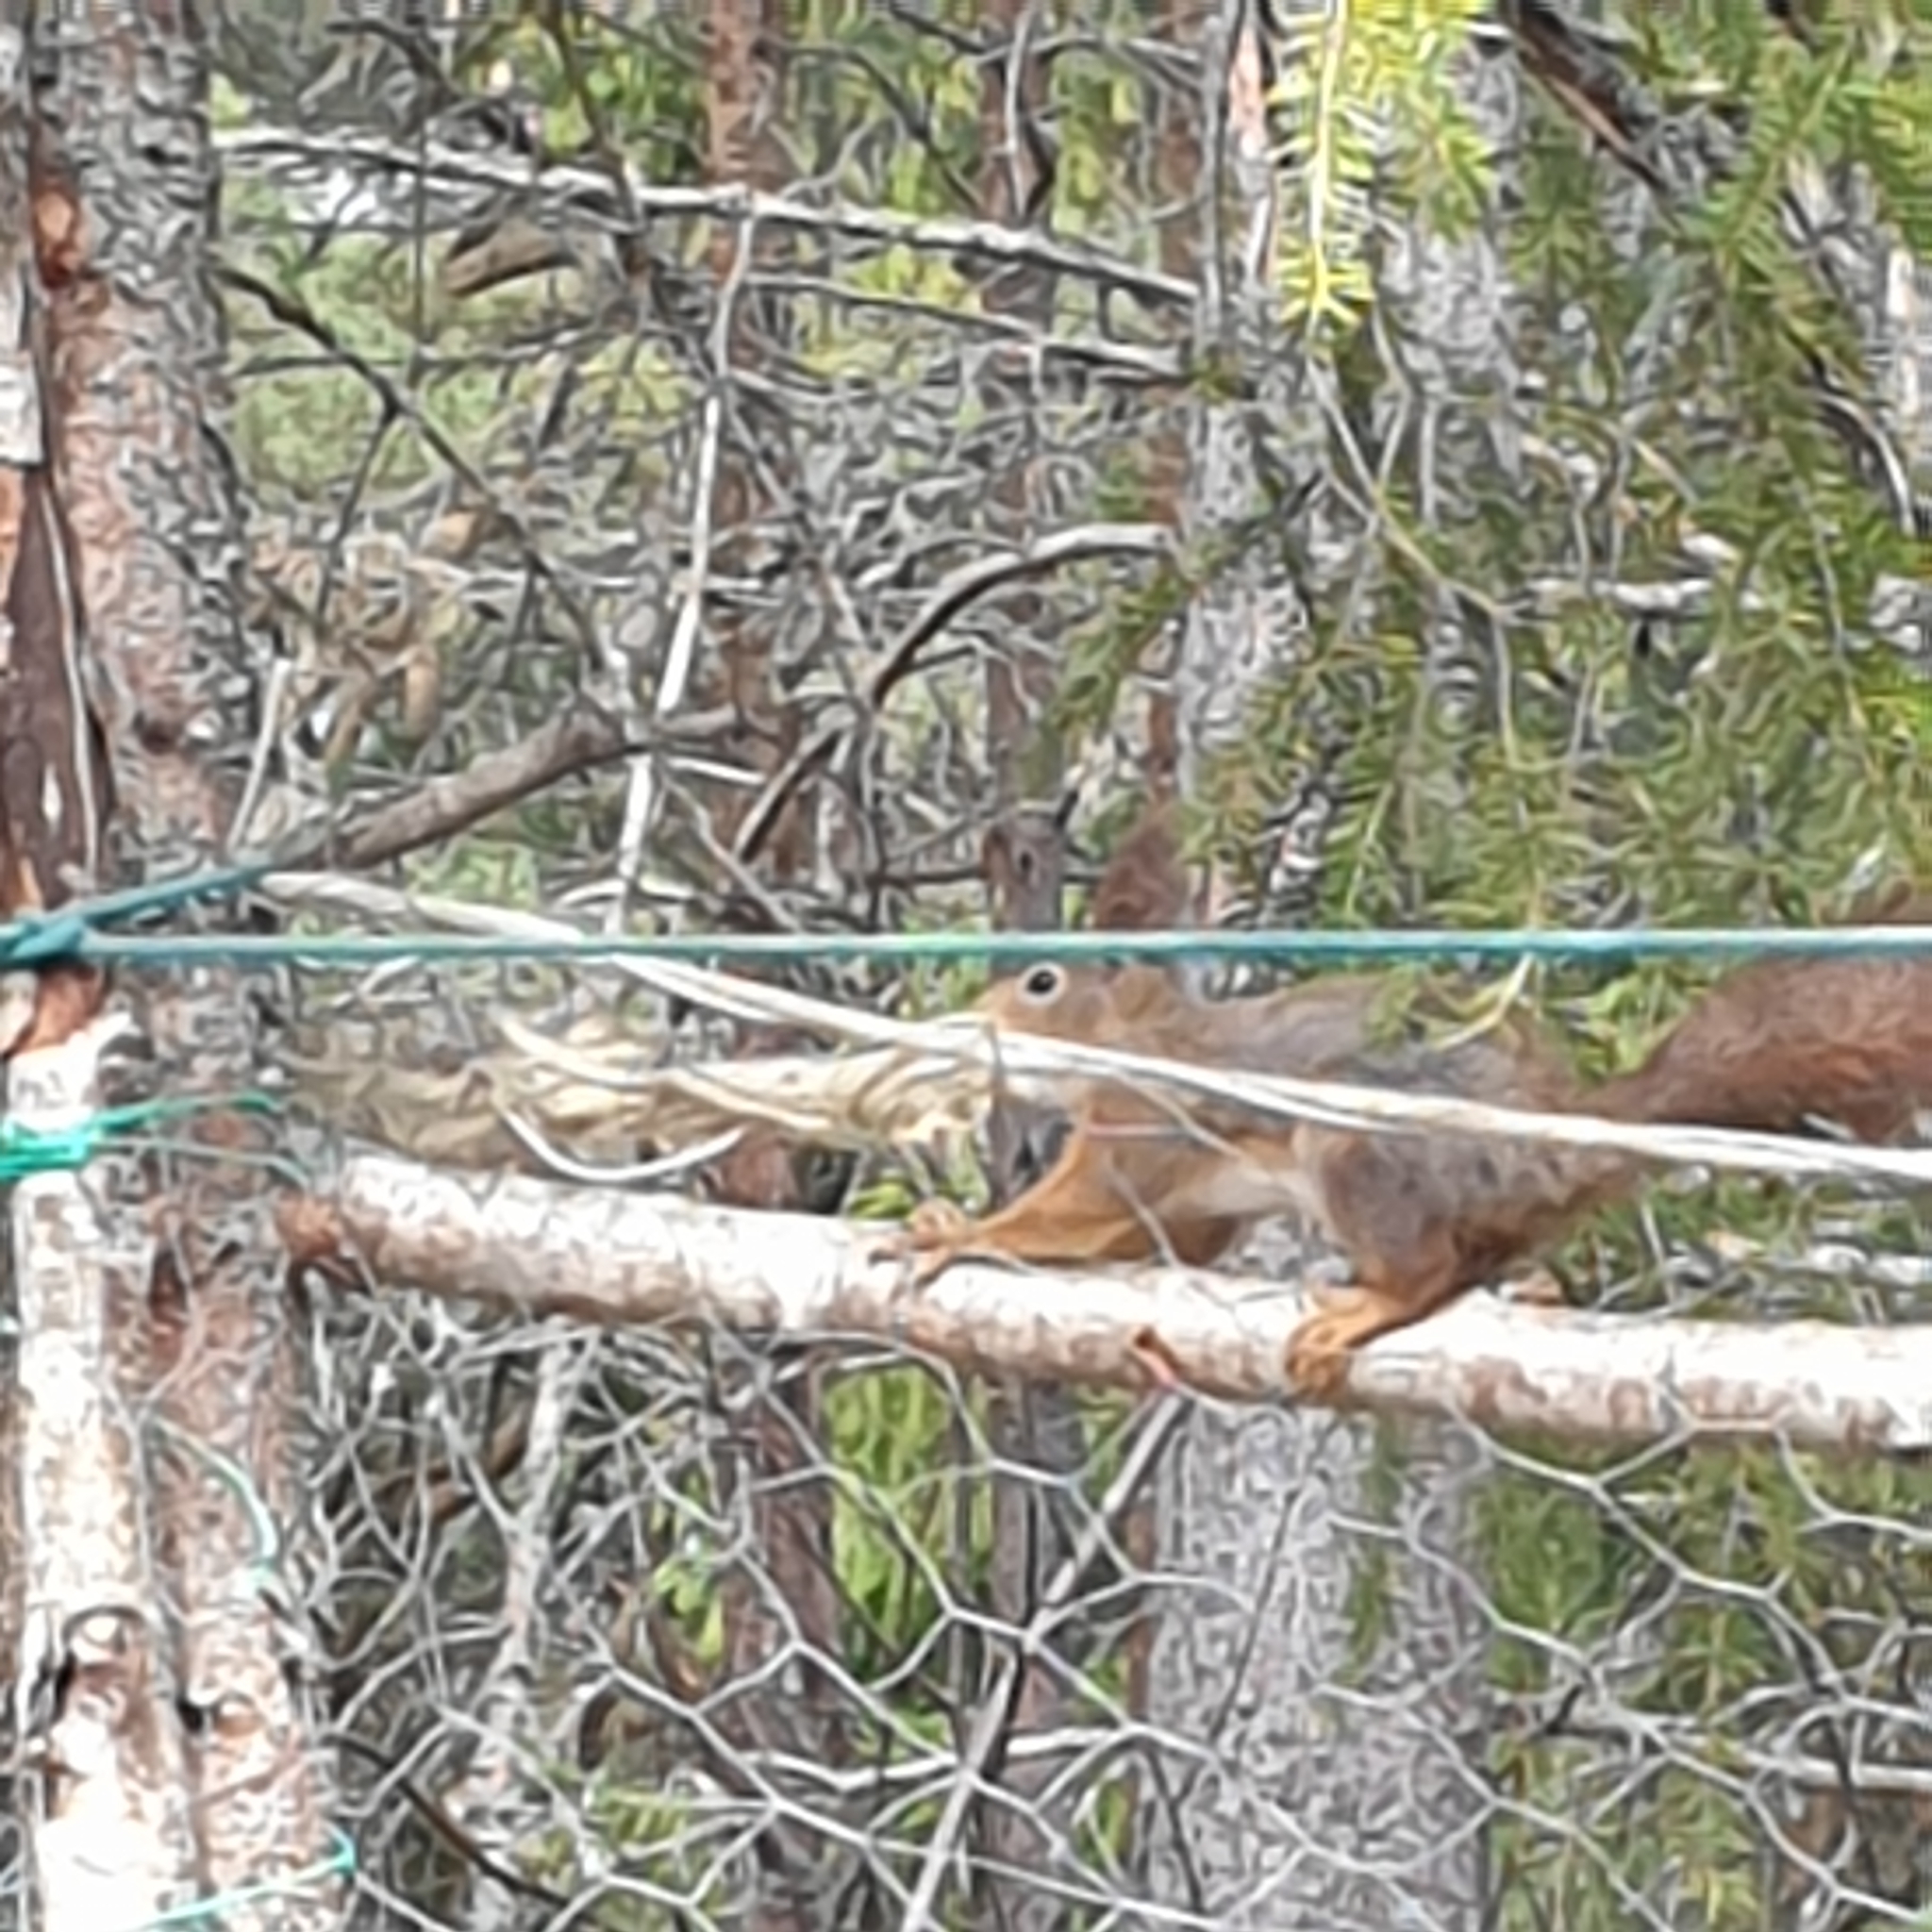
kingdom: Animalia
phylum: Chordata
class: Mammalia
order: Rodentia
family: Sciuridae
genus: Sciurus
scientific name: Sciurus vulgaris
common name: Eurasian red squirrel
